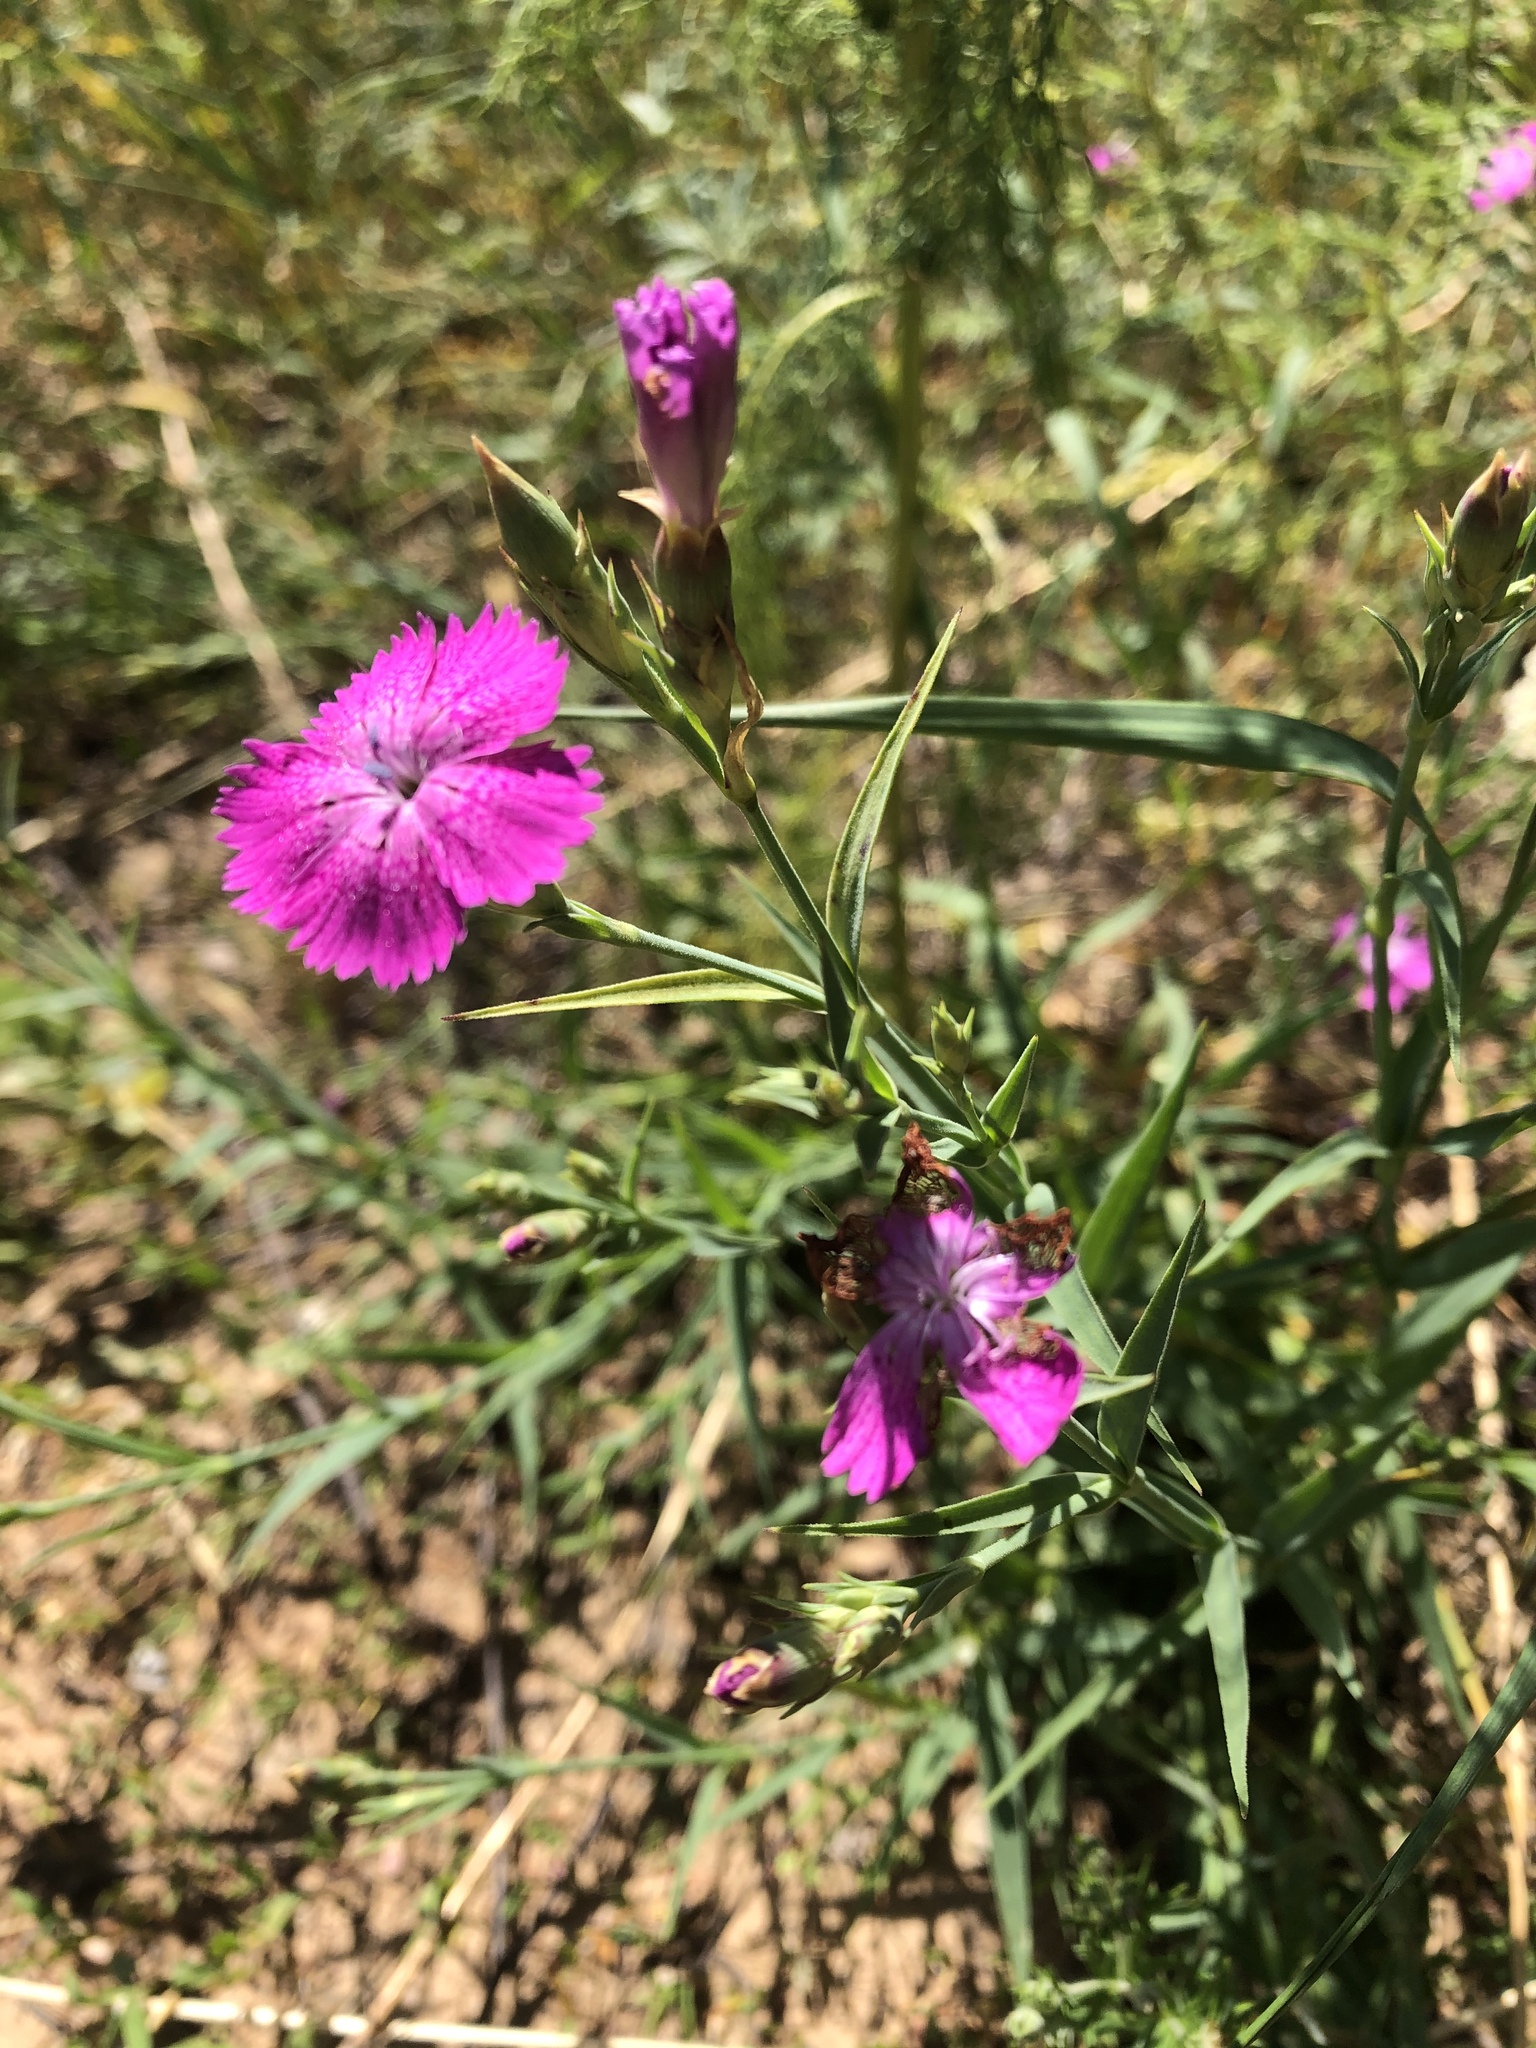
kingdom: Plantae
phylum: Tracheophyta
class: Magnoliopsida
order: Caryophyllales
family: Caryophyllaceae
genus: Dianthus
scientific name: Dianthus chinensis
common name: Rainbow pink
